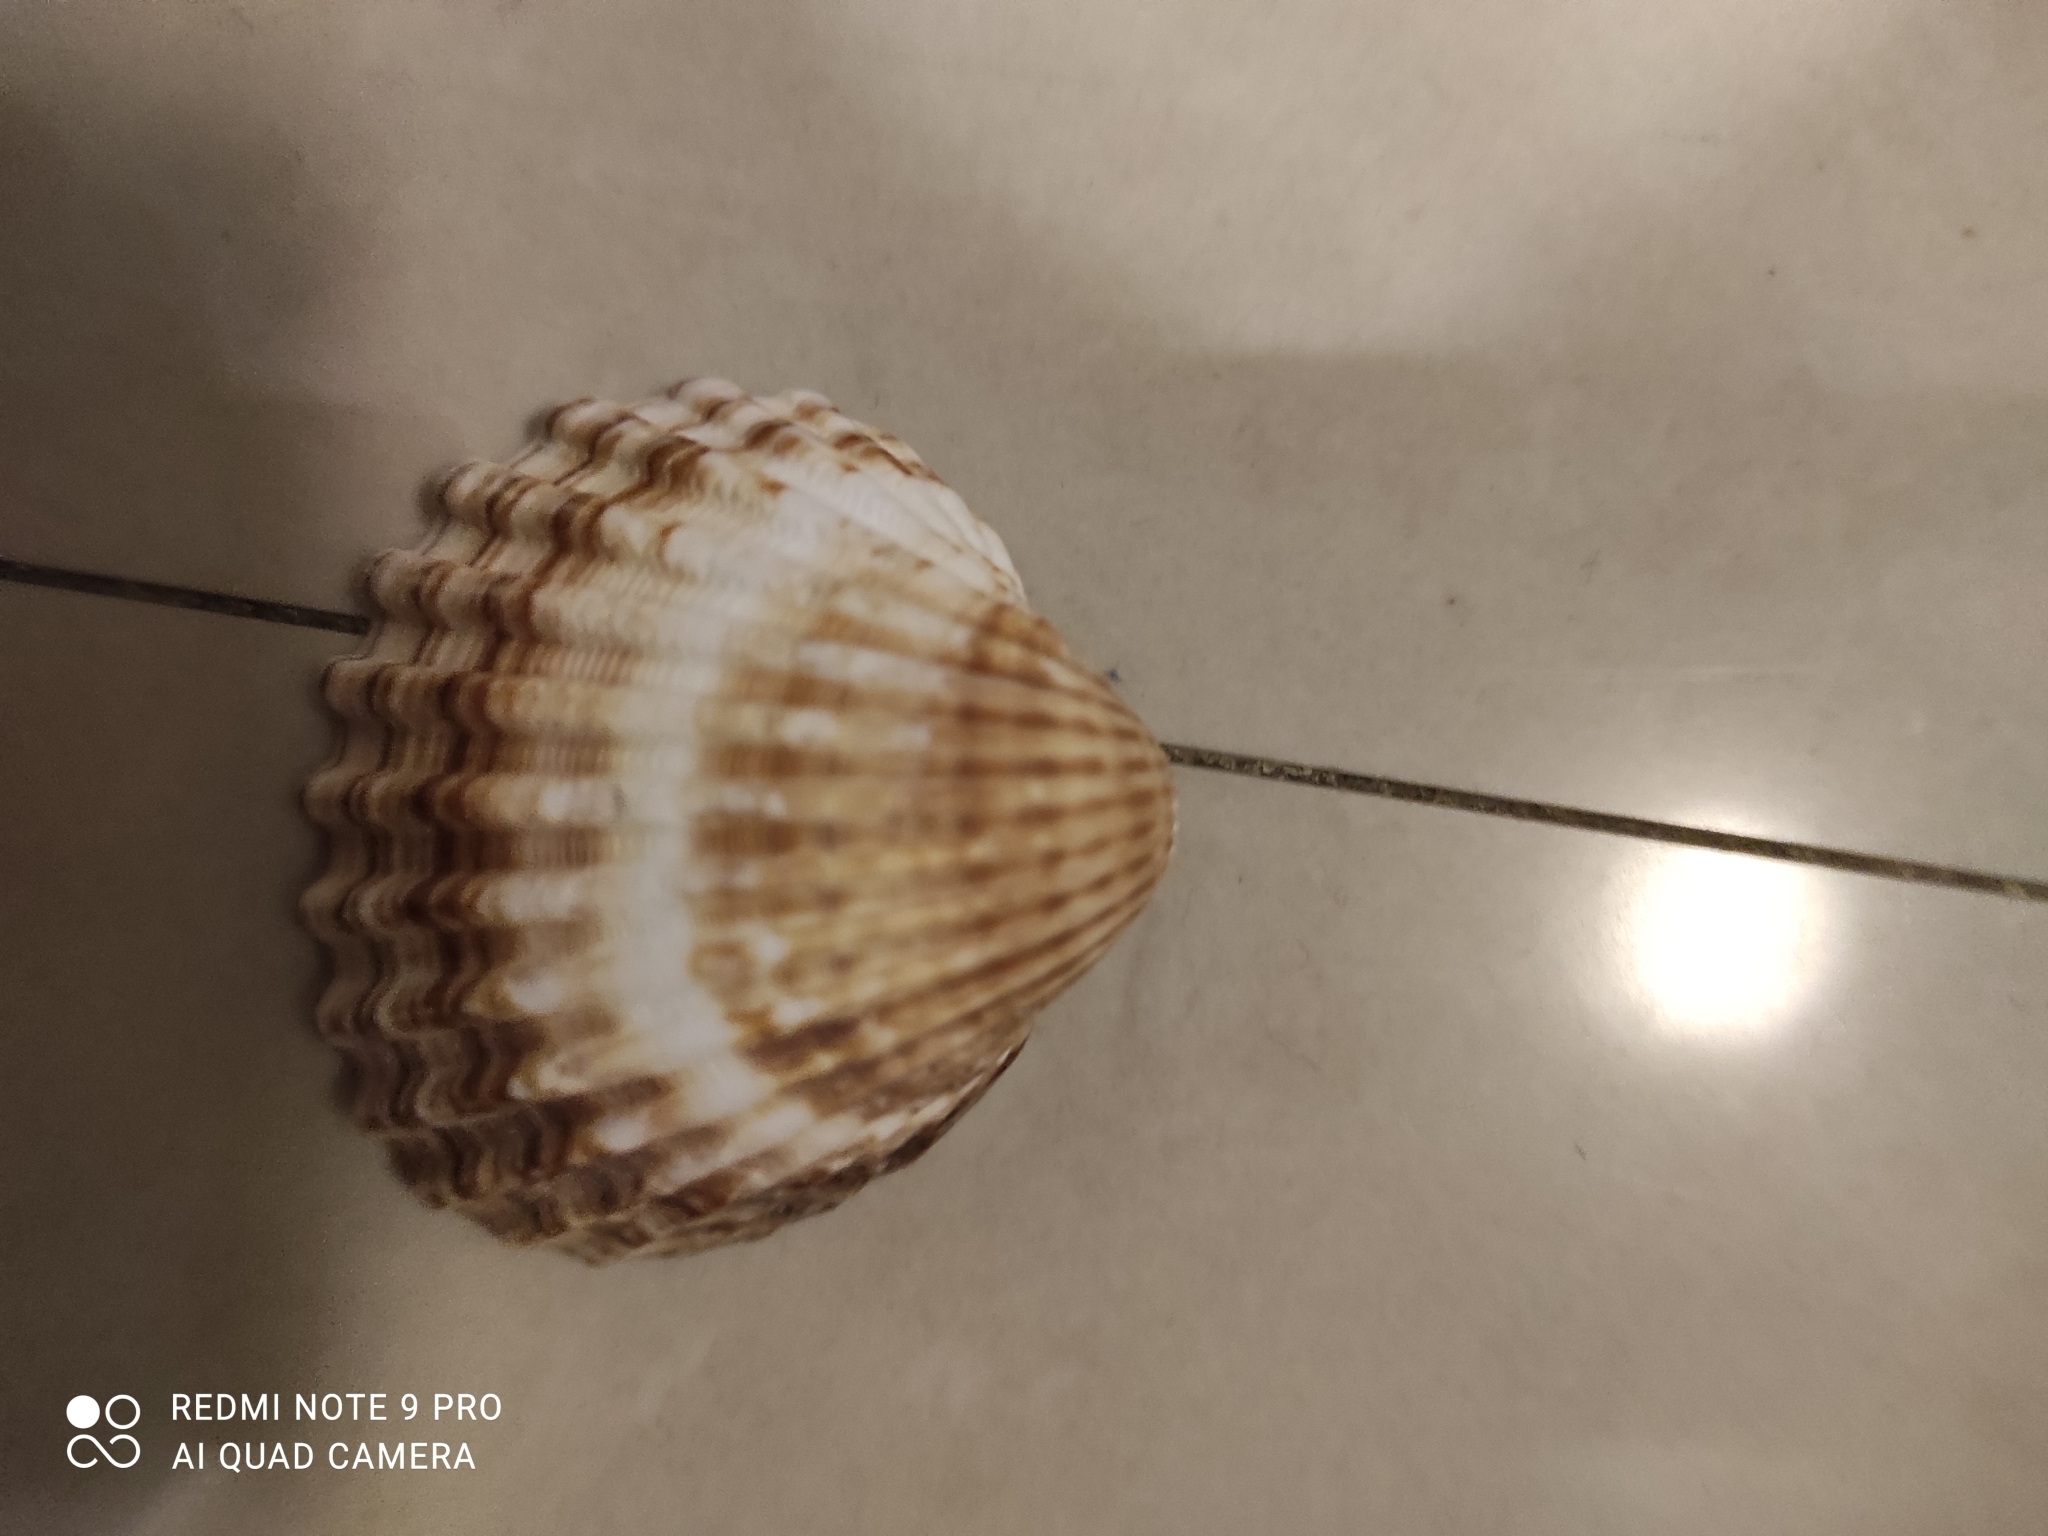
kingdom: Animalia
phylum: Mollusca
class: Bivalvia
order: Cardiida
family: Cardiidae
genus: Acanthocardia
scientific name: Acanthocardia tuberculata
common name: Rough cockle
